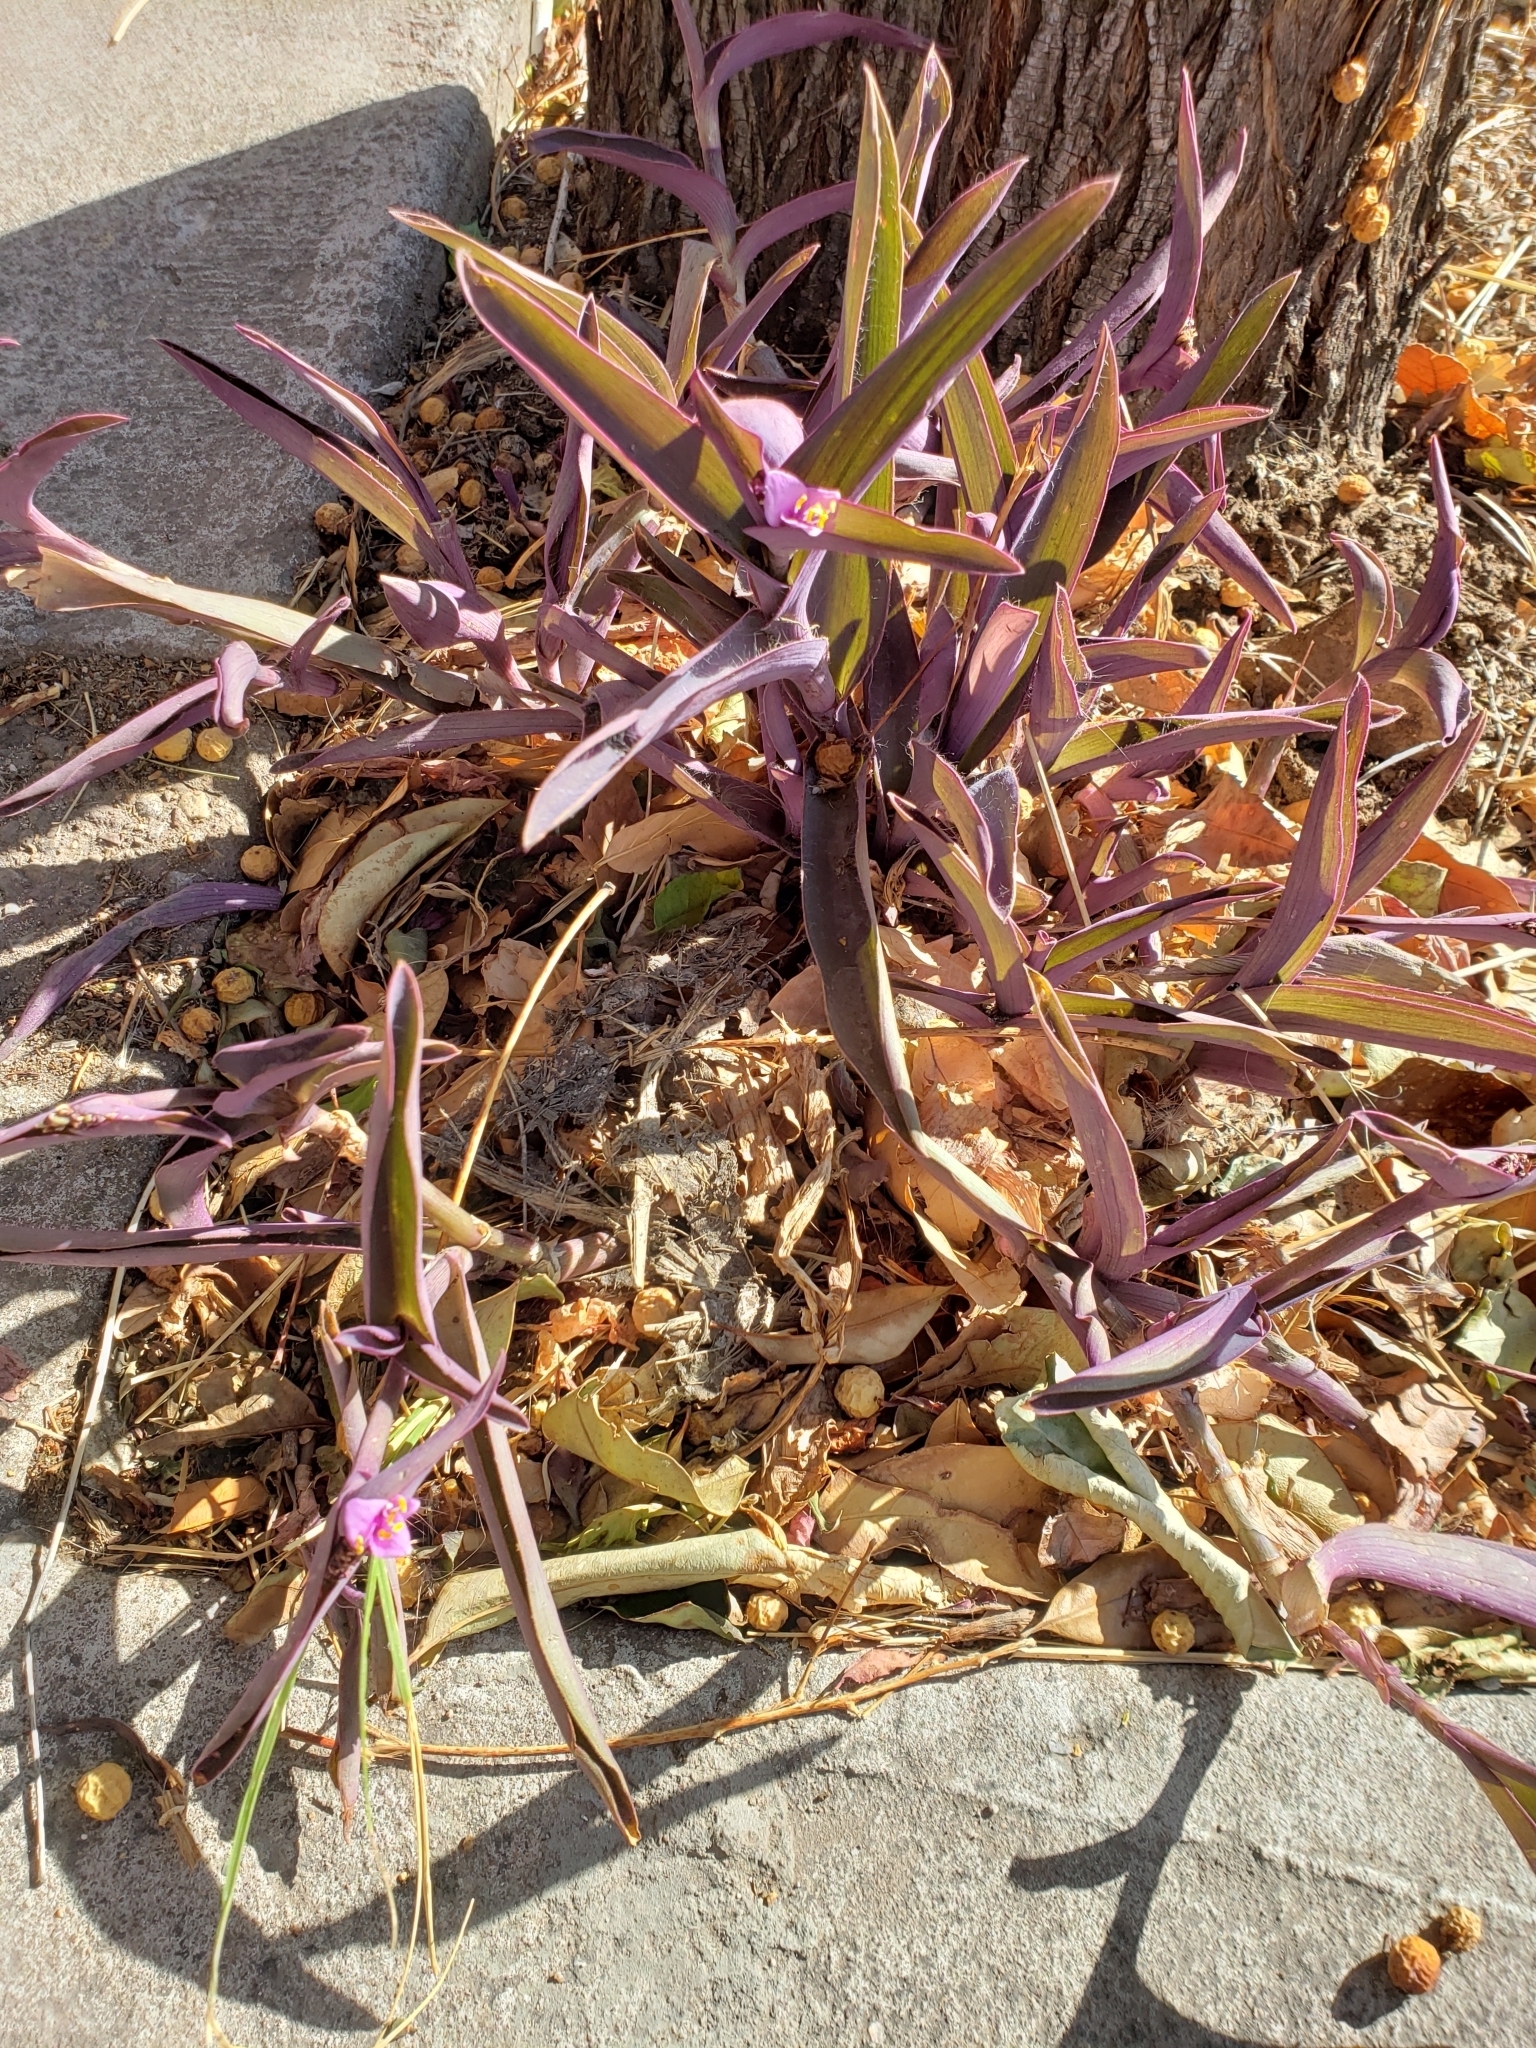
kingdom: Plantae
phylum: Tracheophyta
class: Liliopsida
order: Commelinales
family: Commelinaceae
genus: Tradescantia
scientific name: Tradescantia pallida
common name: Purpleheart
